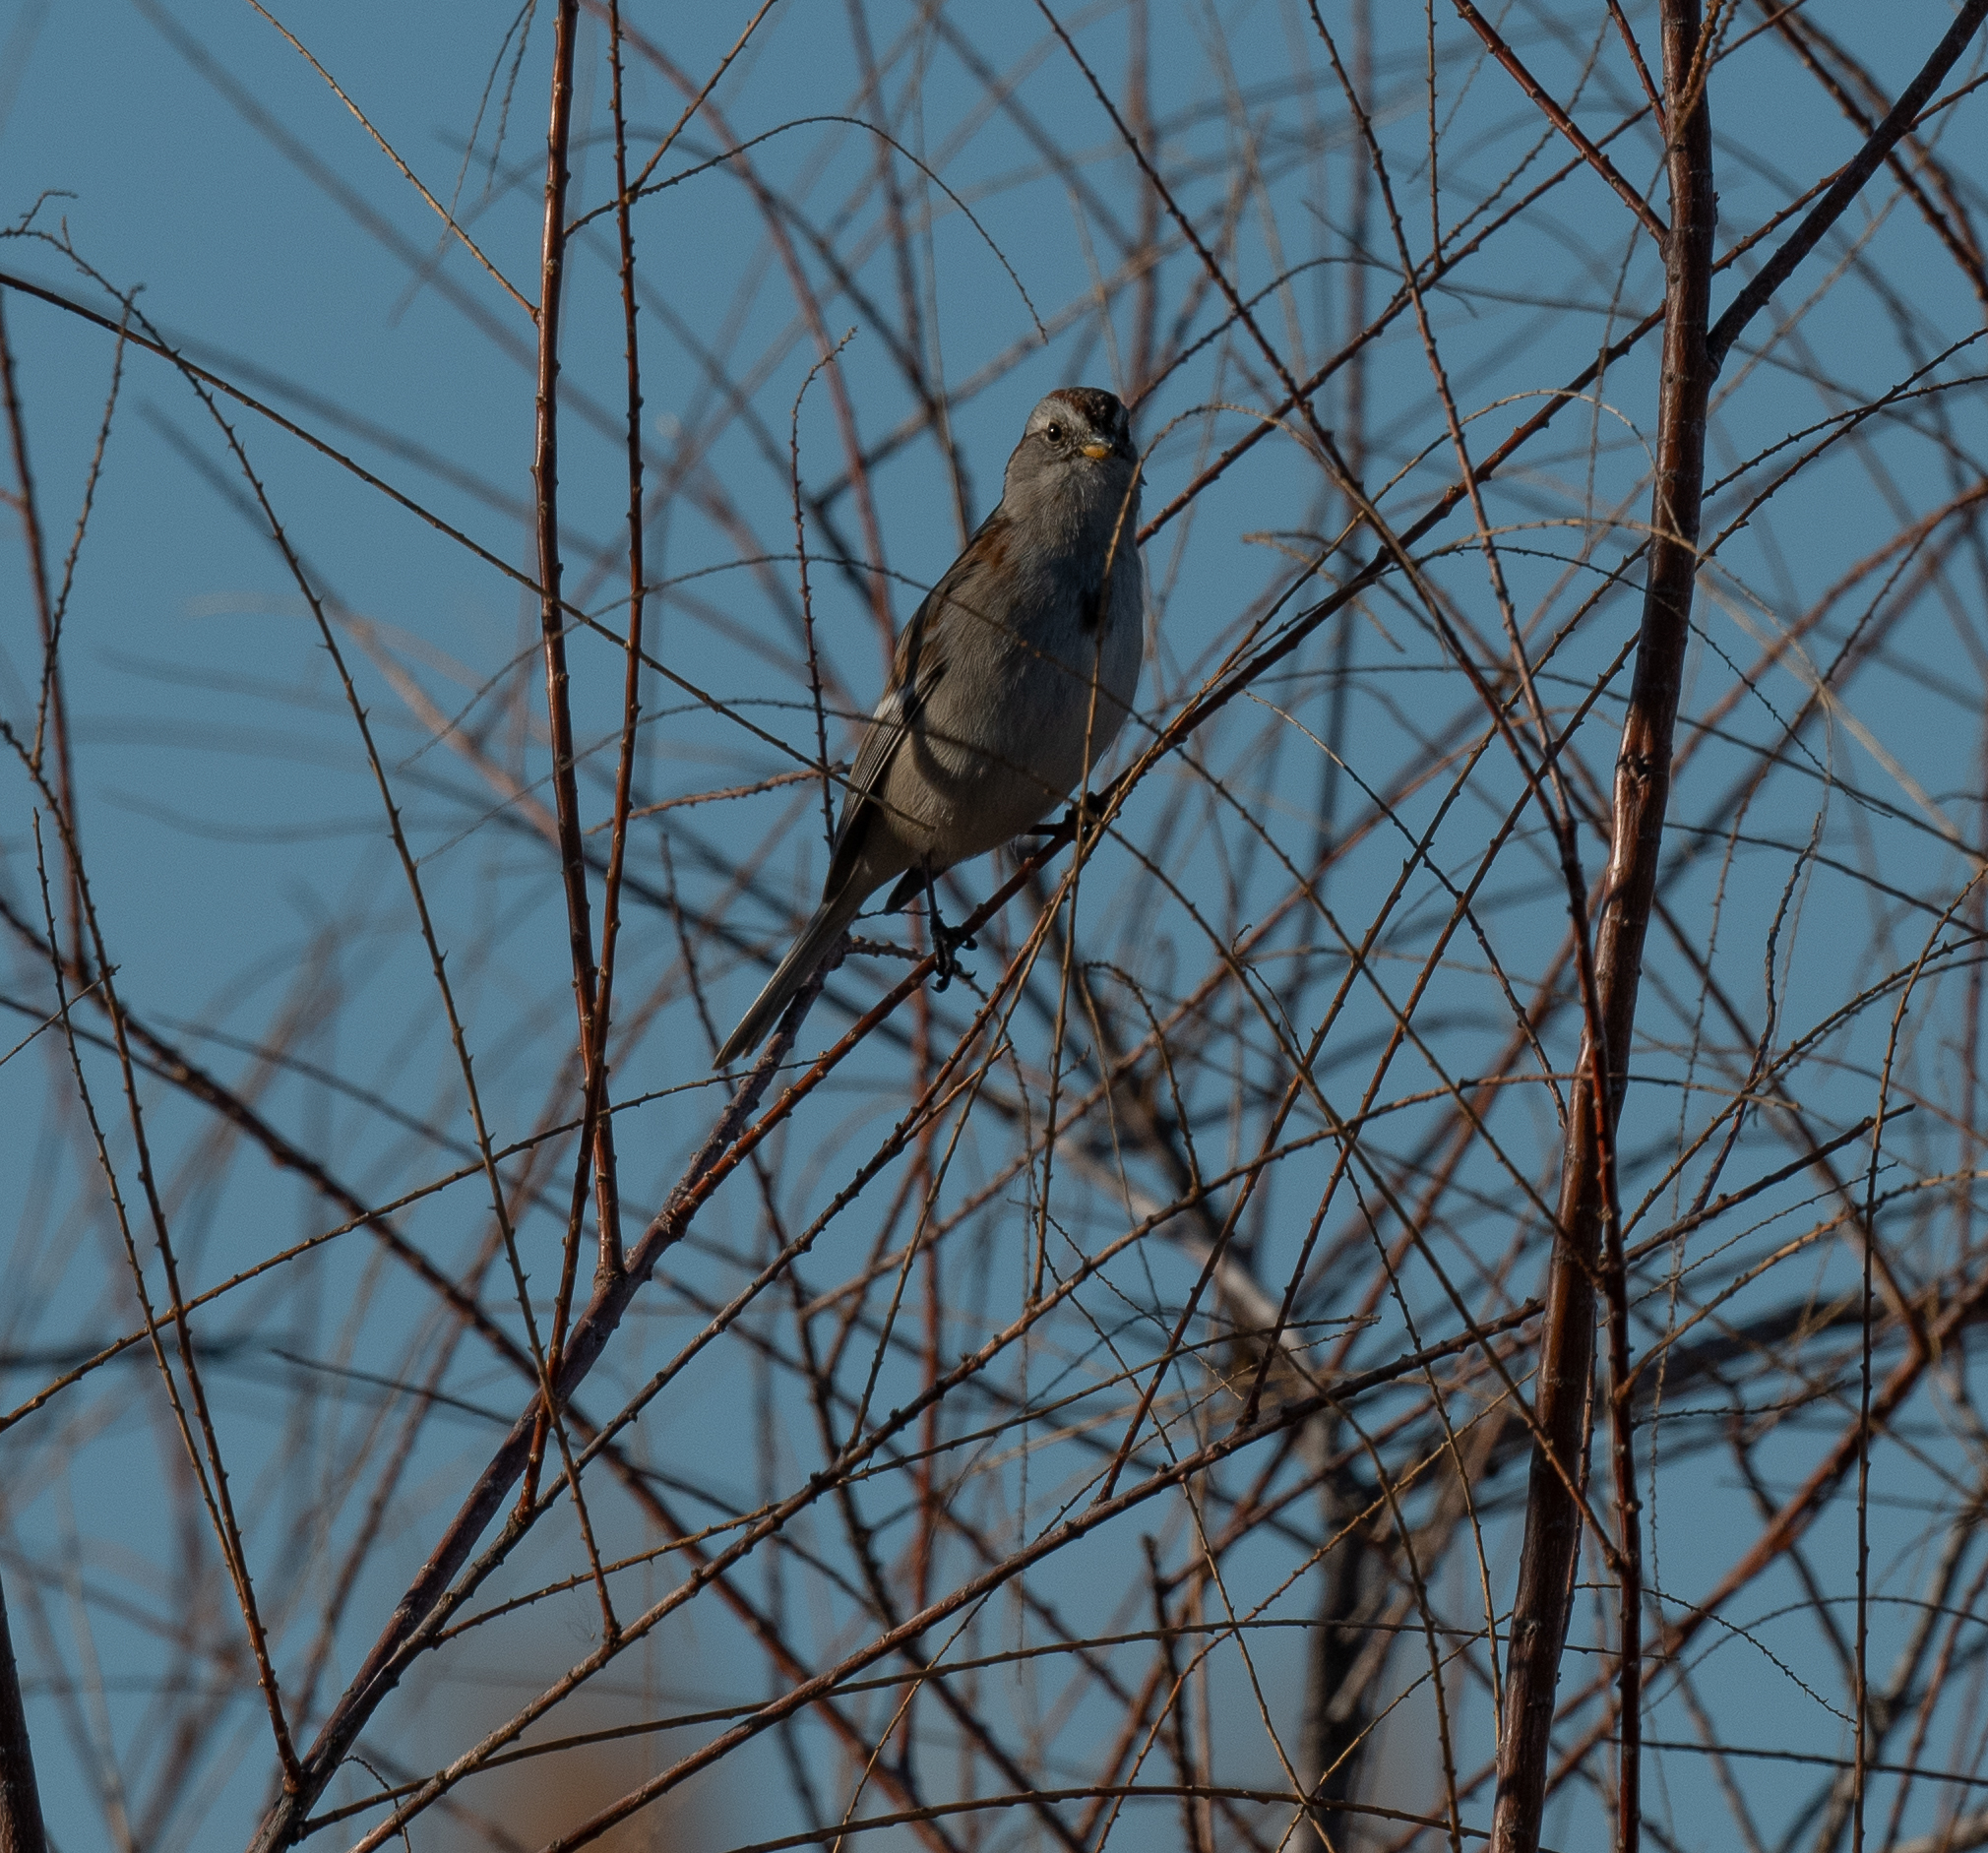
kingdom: Animalia
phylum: Chordata
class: Aves
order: Passeriformes
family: Passerellidae
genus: Spizelloides
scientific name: Spizelloides arborea
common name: American tree sparrow
